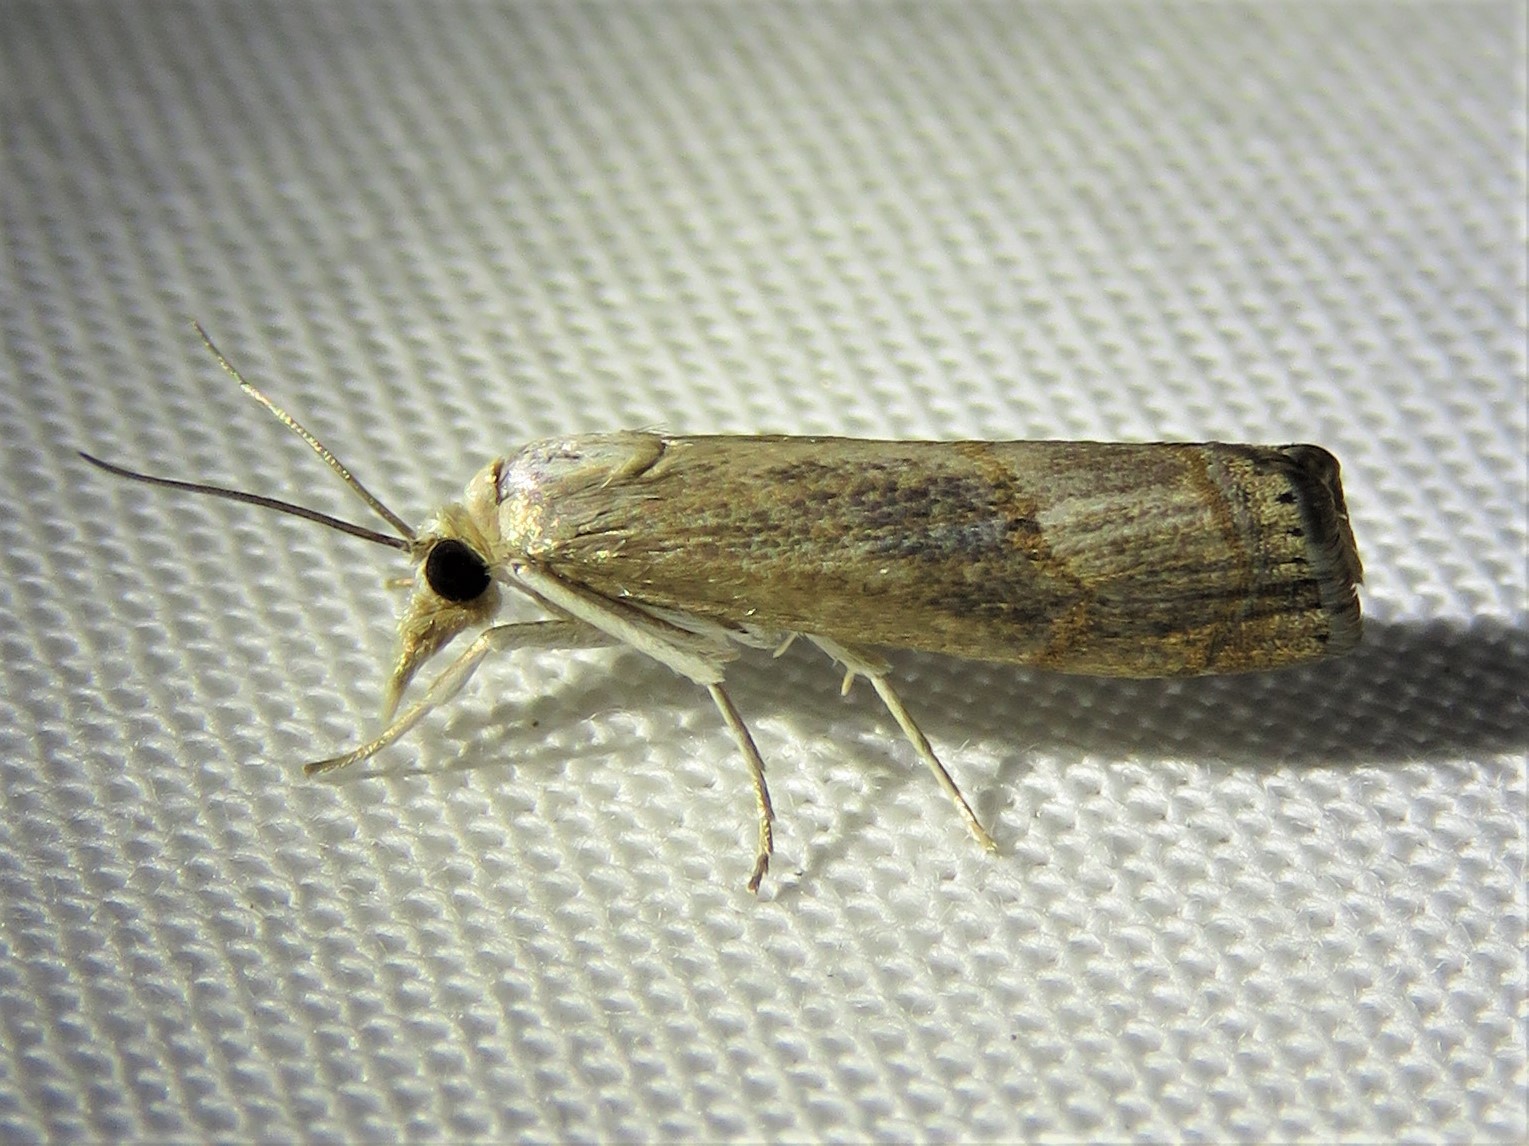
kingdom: Animalia
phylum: Arthropoda
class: Insecta
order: Lepidoptera
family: Crambidae
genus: Parapediasia
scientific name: Parapediasia teterellus
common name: Bluegrass webworm moth
